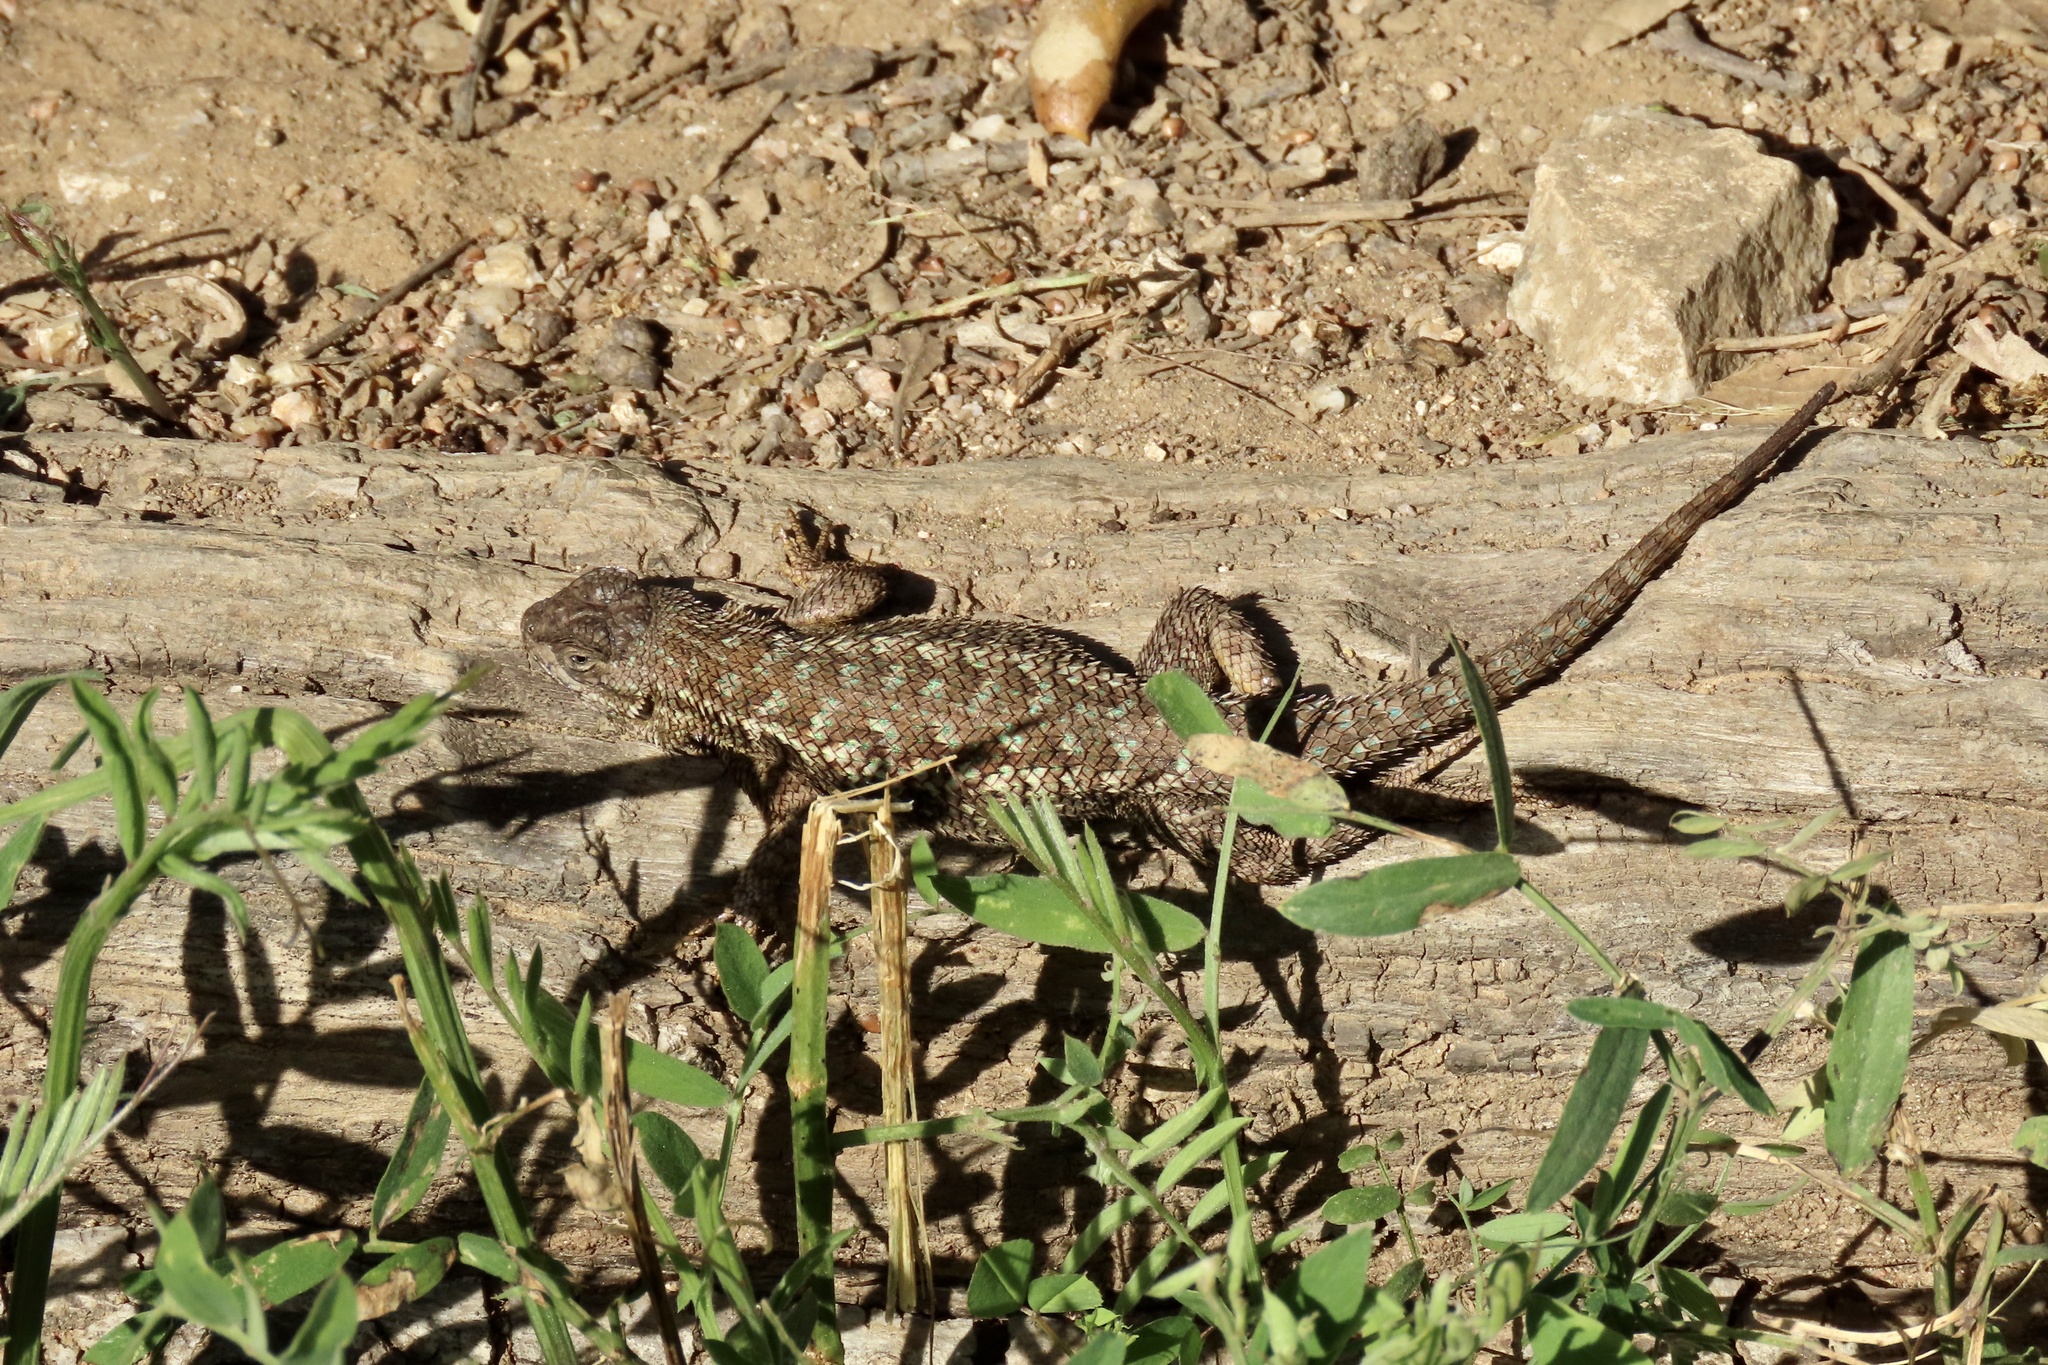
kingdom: Animalia
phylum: Chordata
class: Squamata
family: Phrynosomatidae
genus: Sceloporus
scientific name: Sceloporus occidentalis
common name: Western fence lizard
